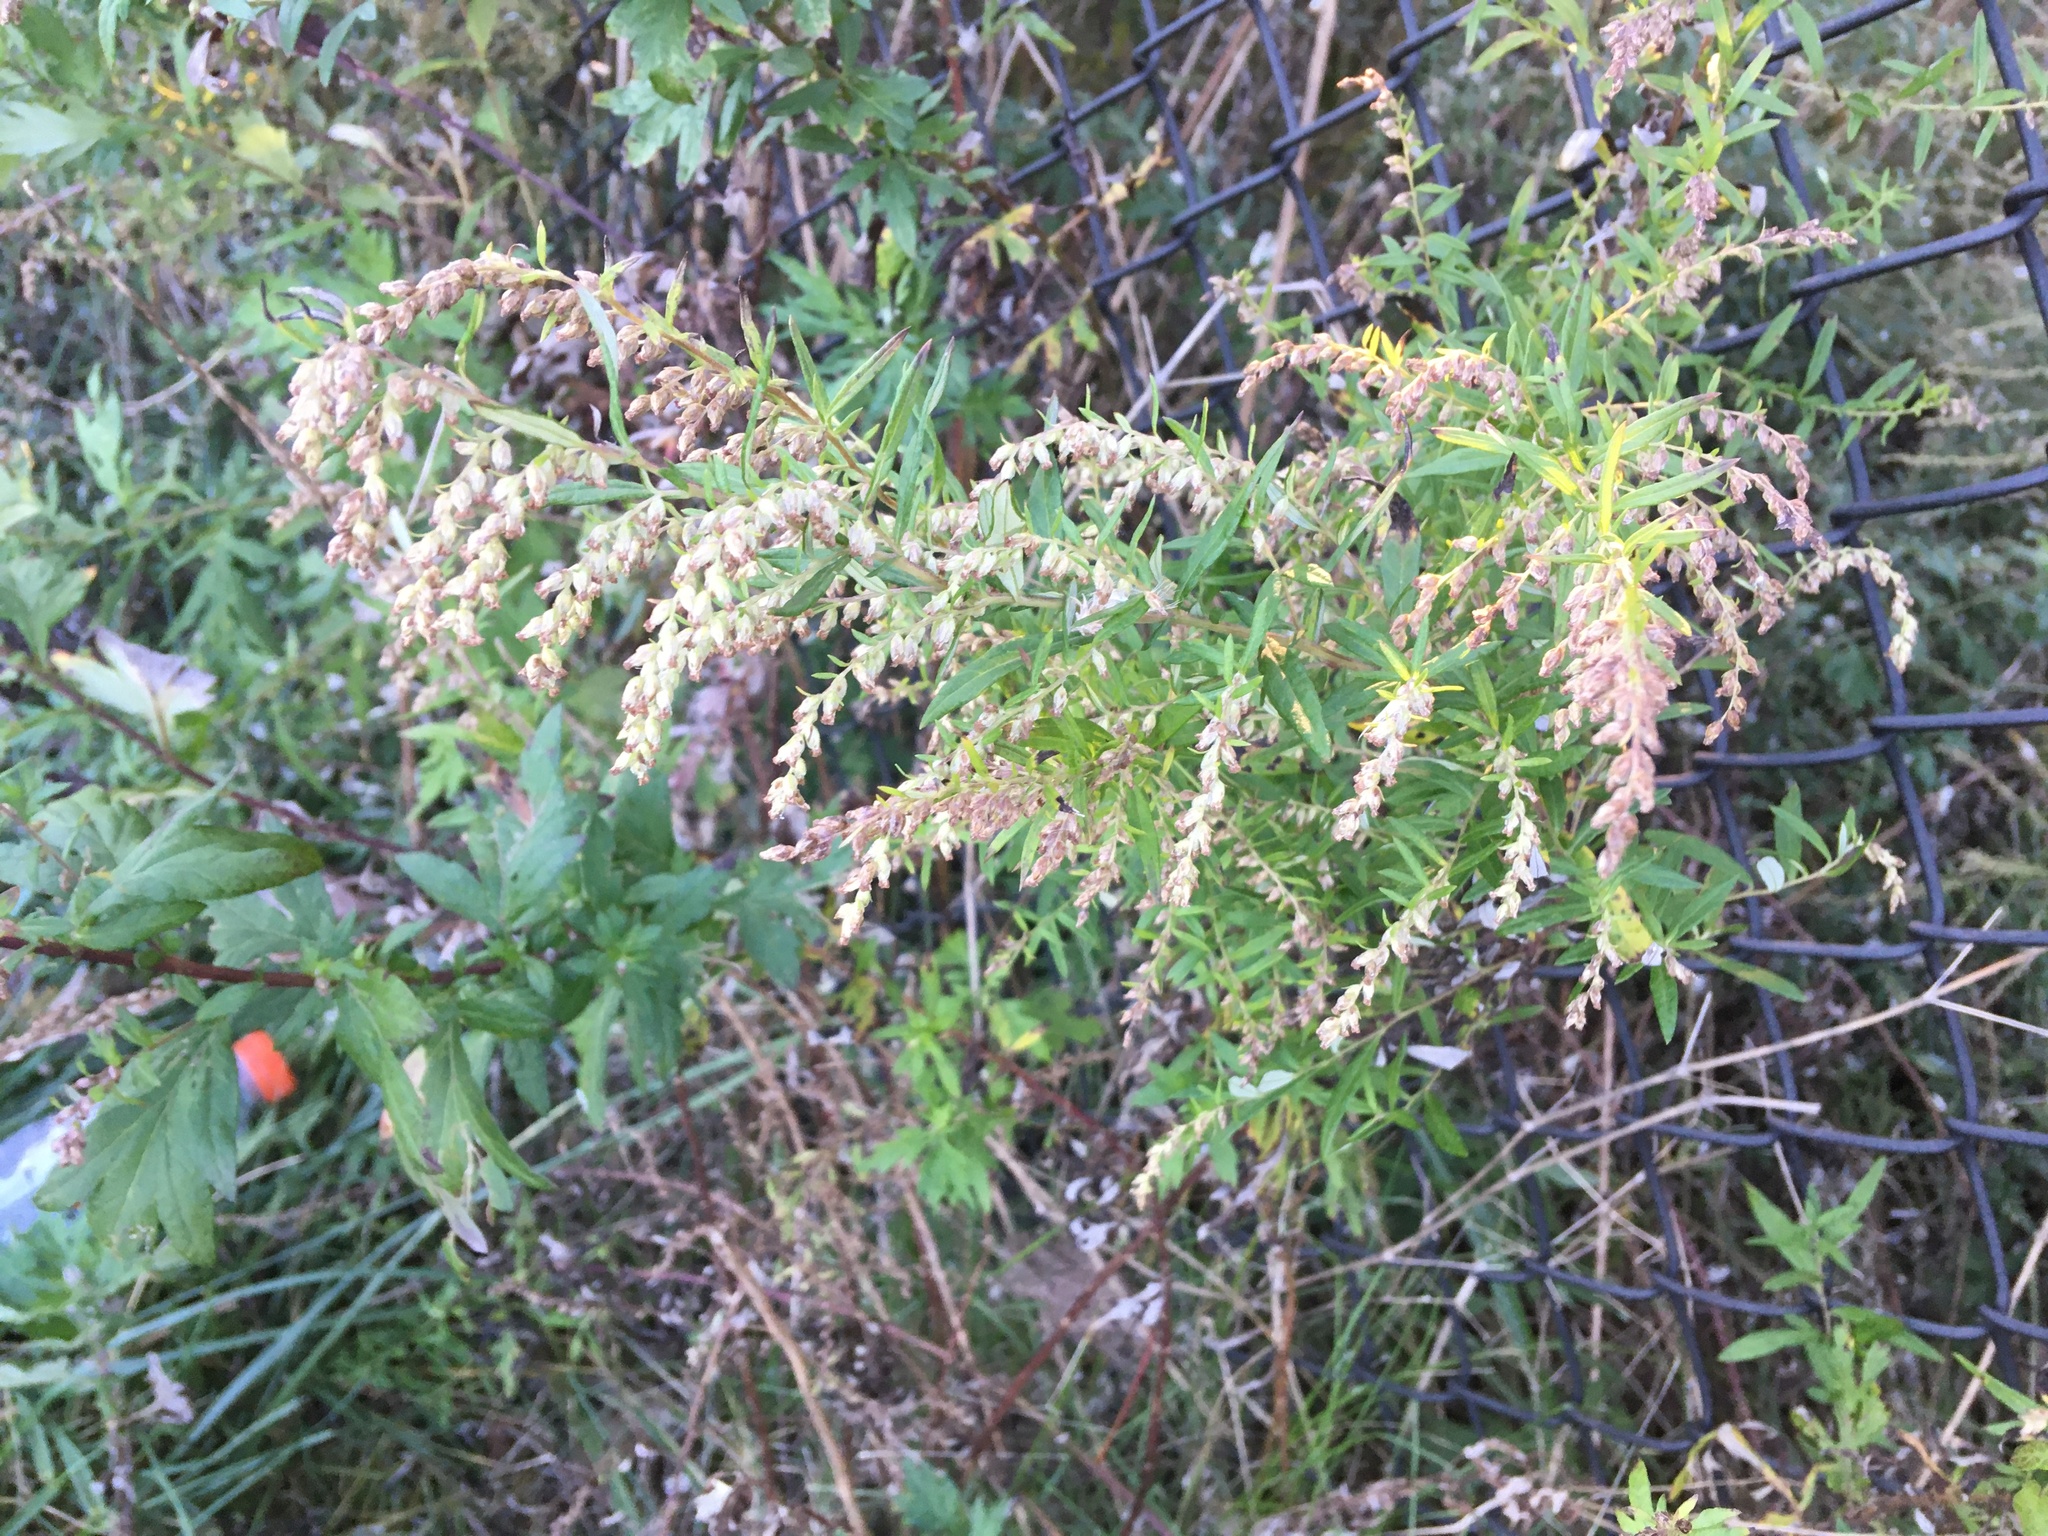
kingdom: Plantae
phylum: Tracheophyta
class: Magnoliopsida
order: Asterales
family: Asteraceae
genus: Artemisia
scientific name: Artemisia vulgaris
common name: Mugwort
